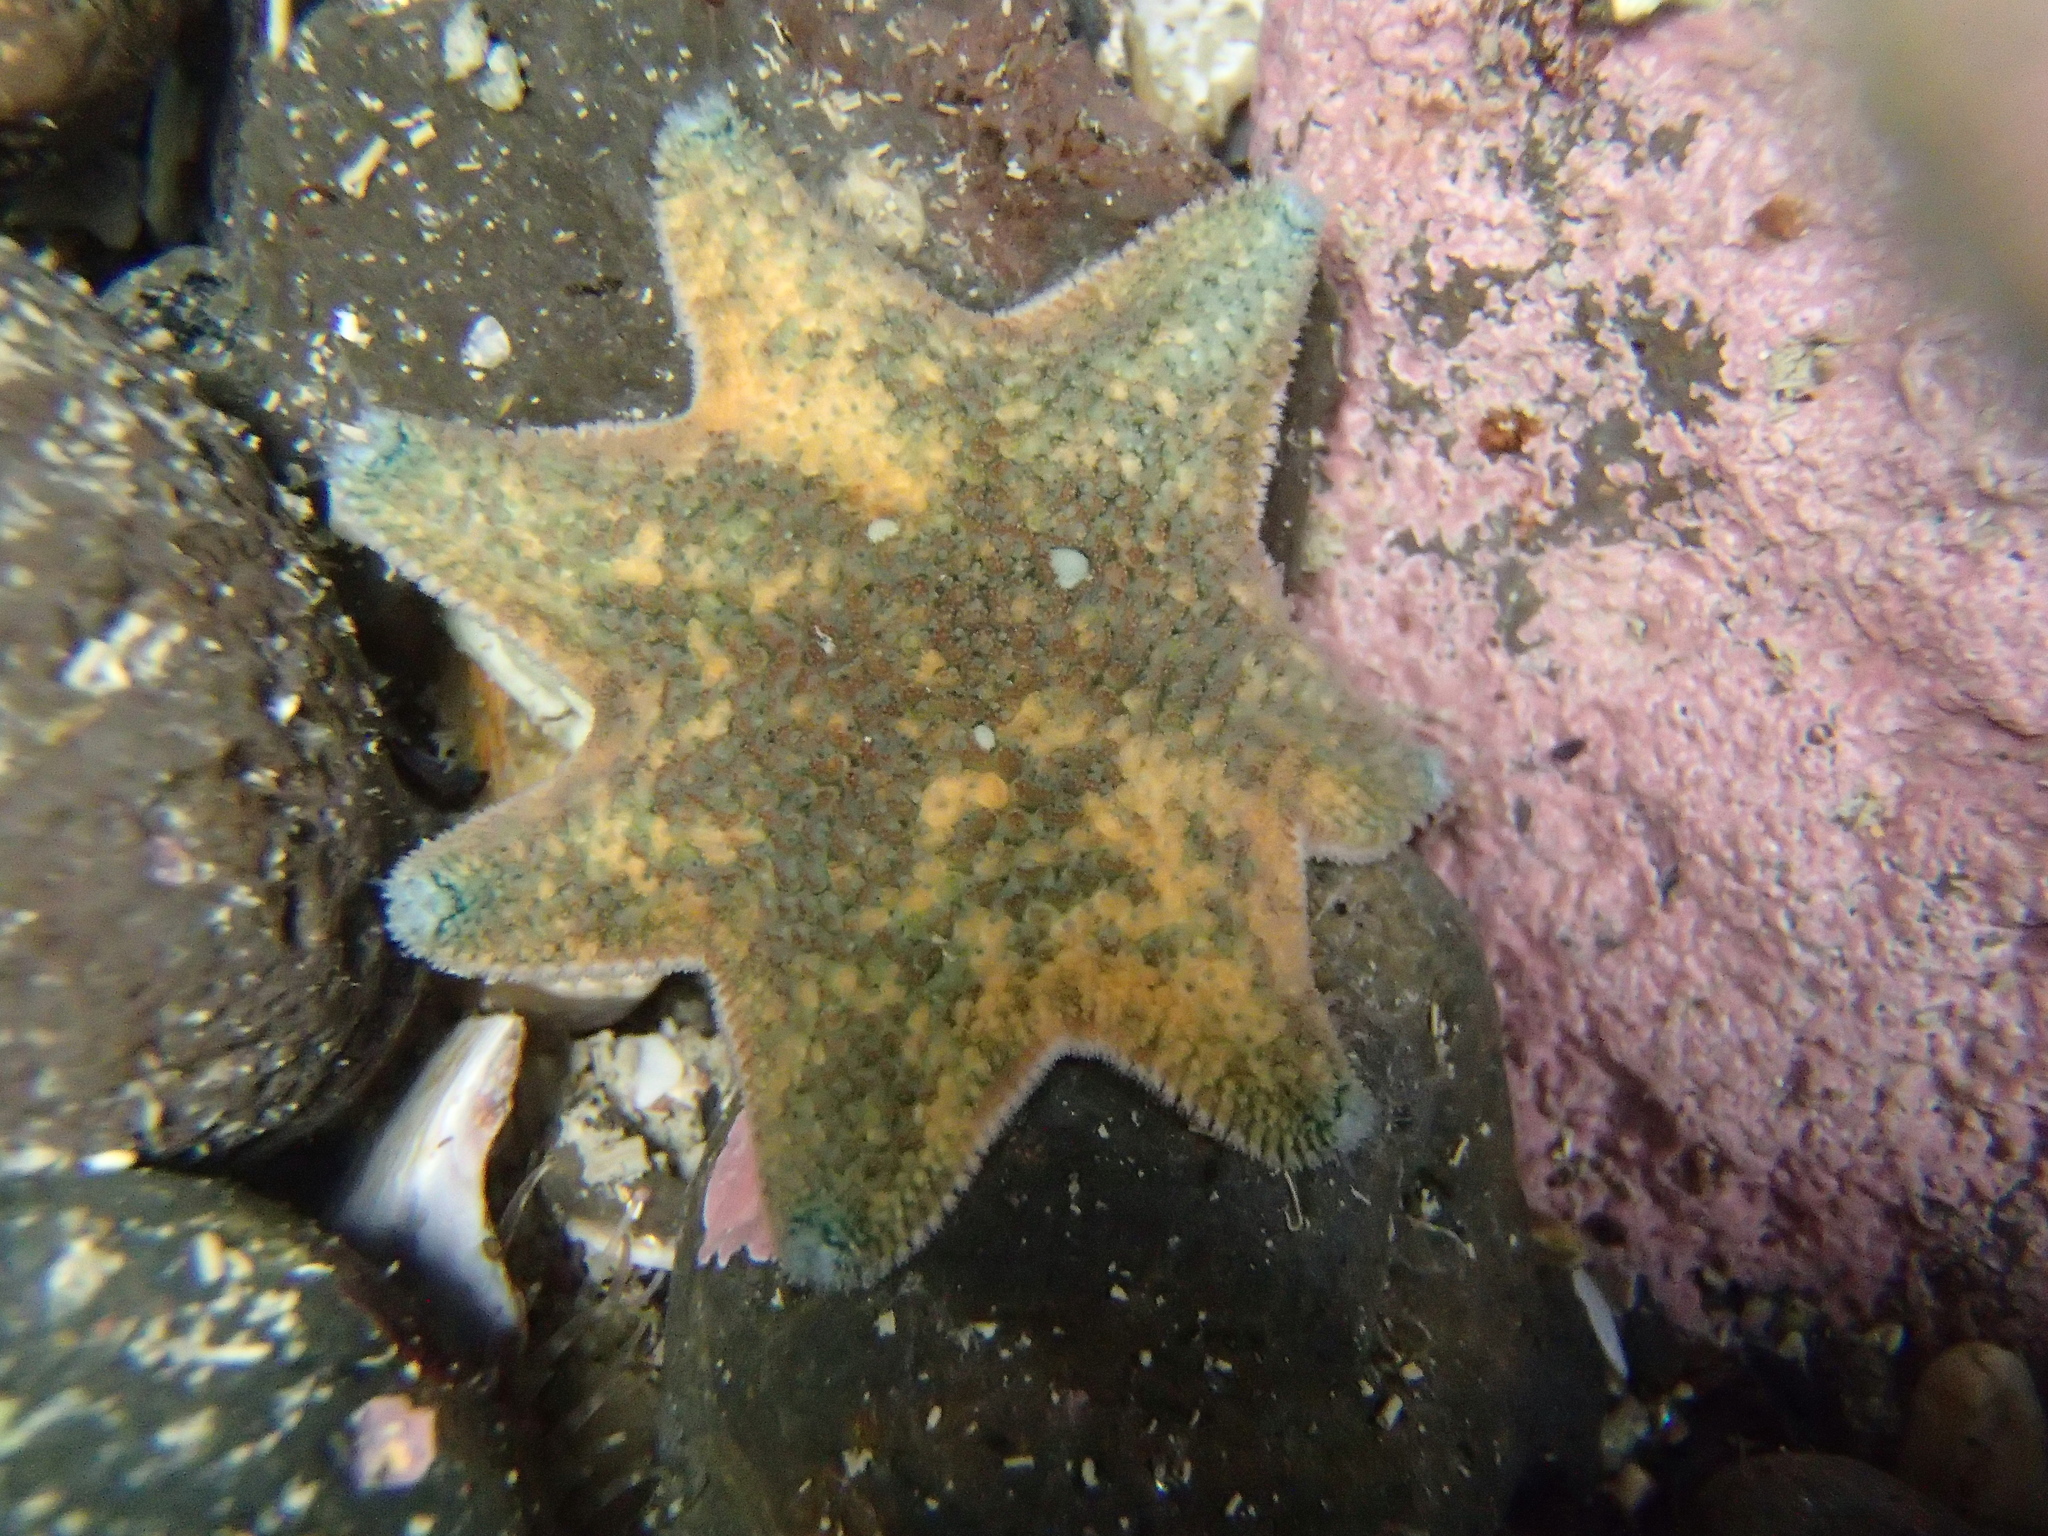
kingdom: Animalia
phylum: Echinodermata
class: Asteroidea
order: Valvatida
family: Asterinidae
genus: Patiriella
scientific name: Patiriella regularis
